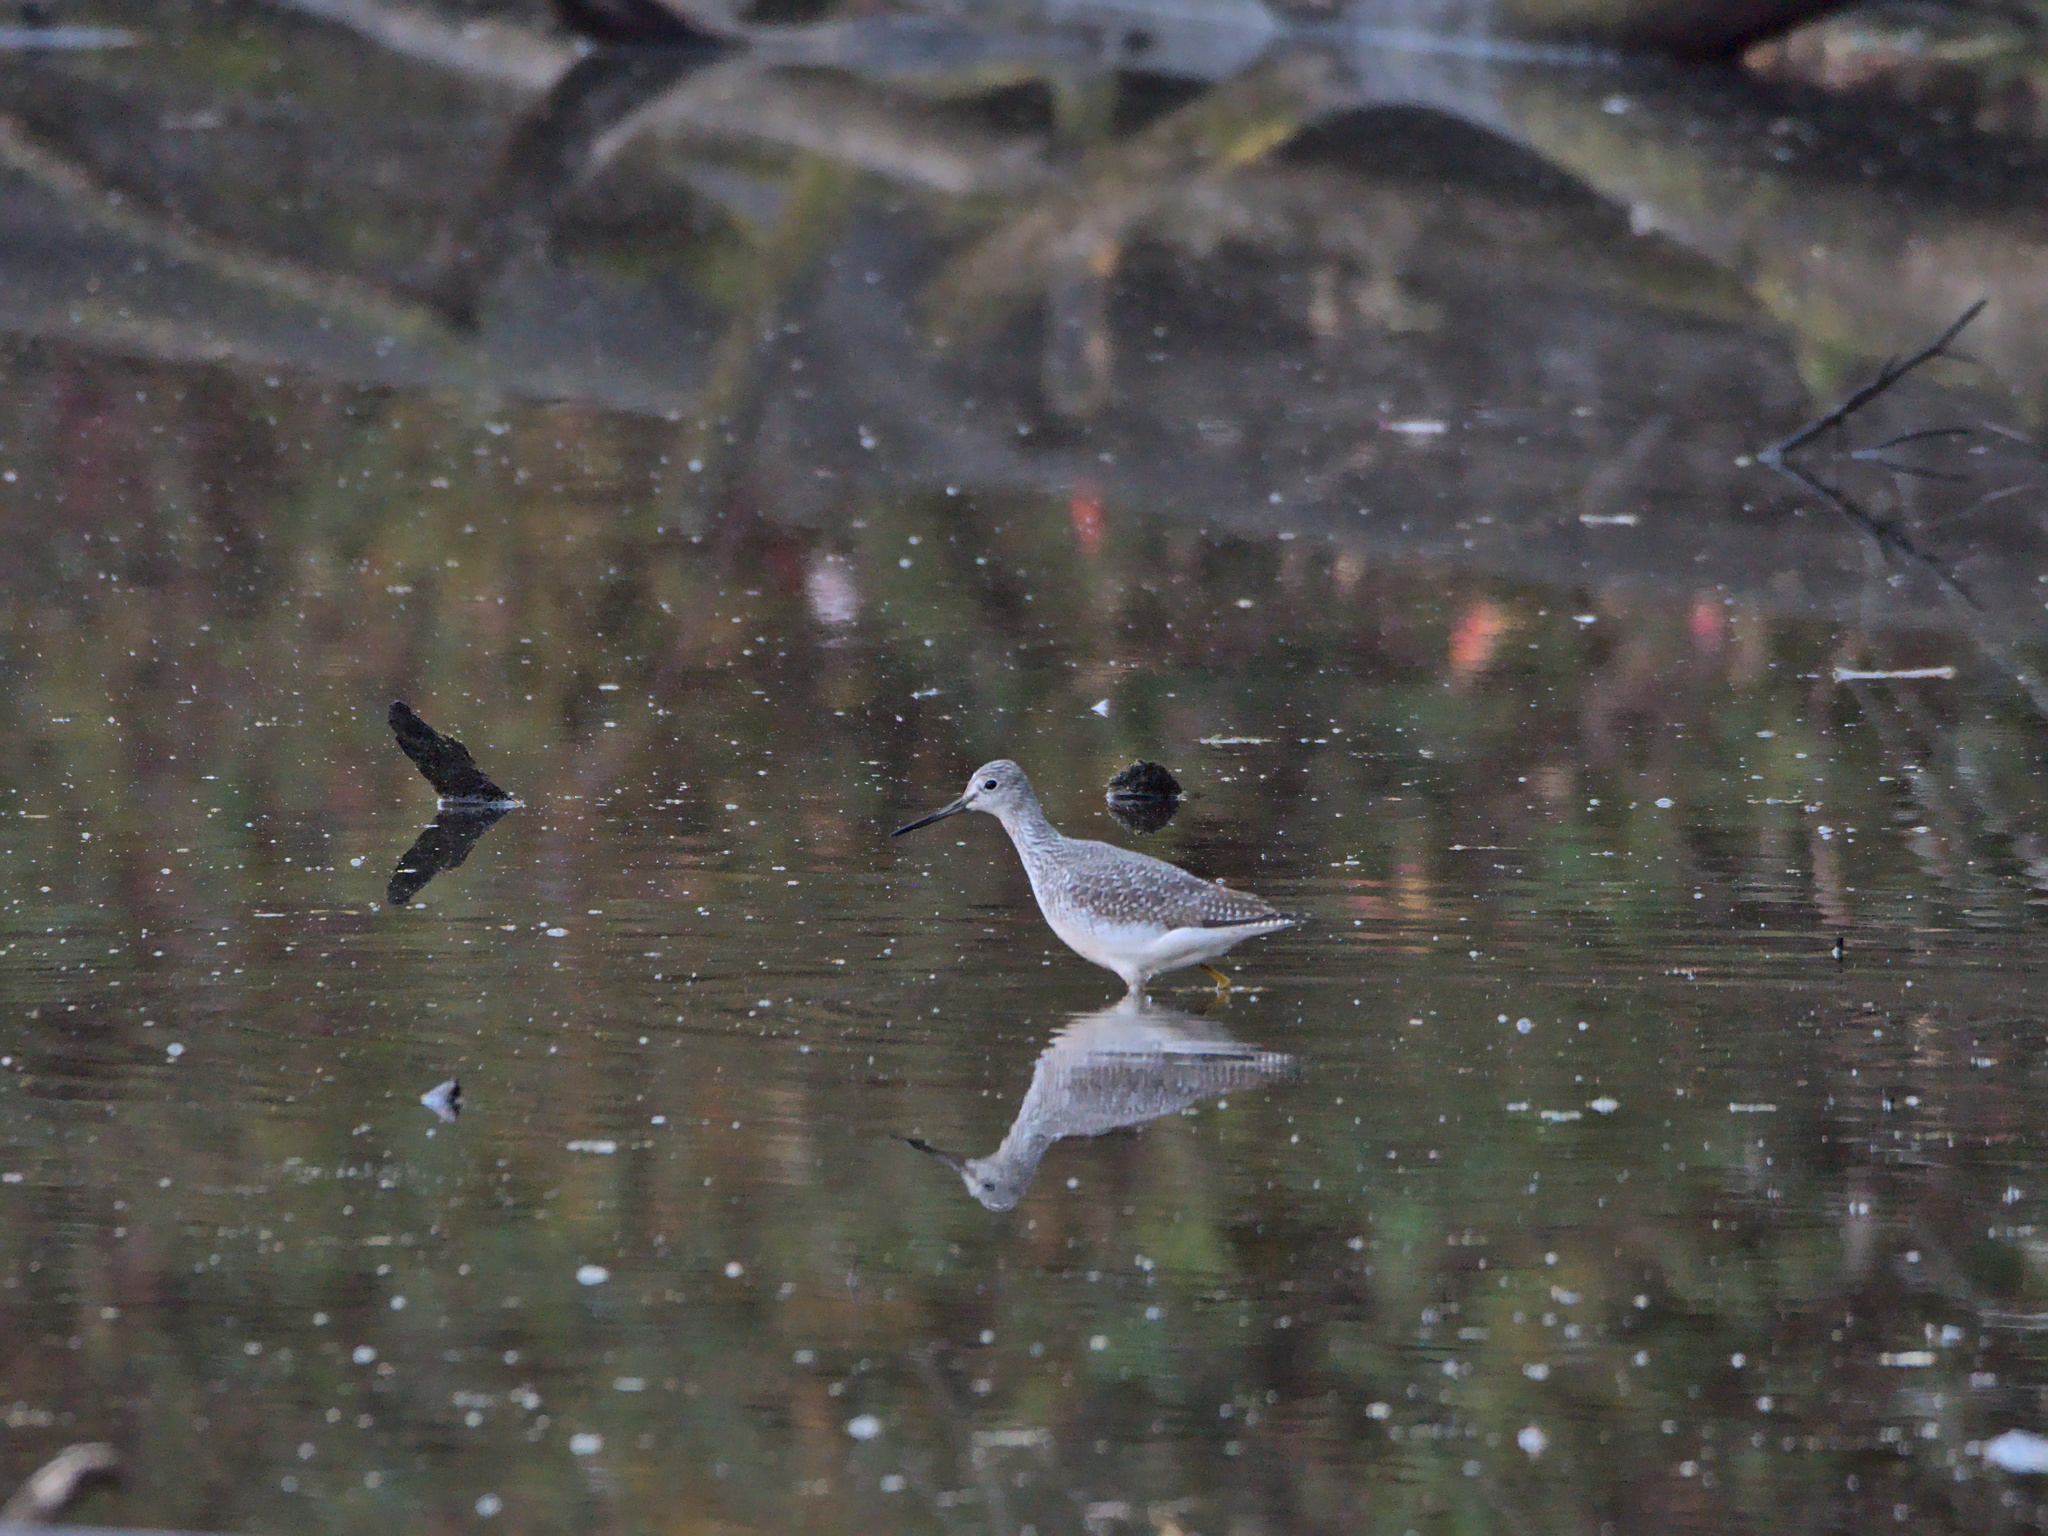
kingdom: Animalia
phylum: Chordata
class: Aves
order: Charadriiformes
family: Scolopacidae
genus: Tringa
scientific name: Tringa melanoleuca
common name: Greater yellowlegs
